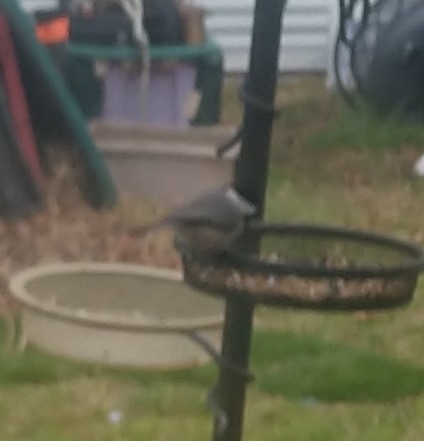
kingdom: Animalia
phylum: Chordata
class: Aves
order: Passeriformes
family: Paridae
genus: Poecile
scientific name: Poecile carolinensis
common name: Carolina chickadee
